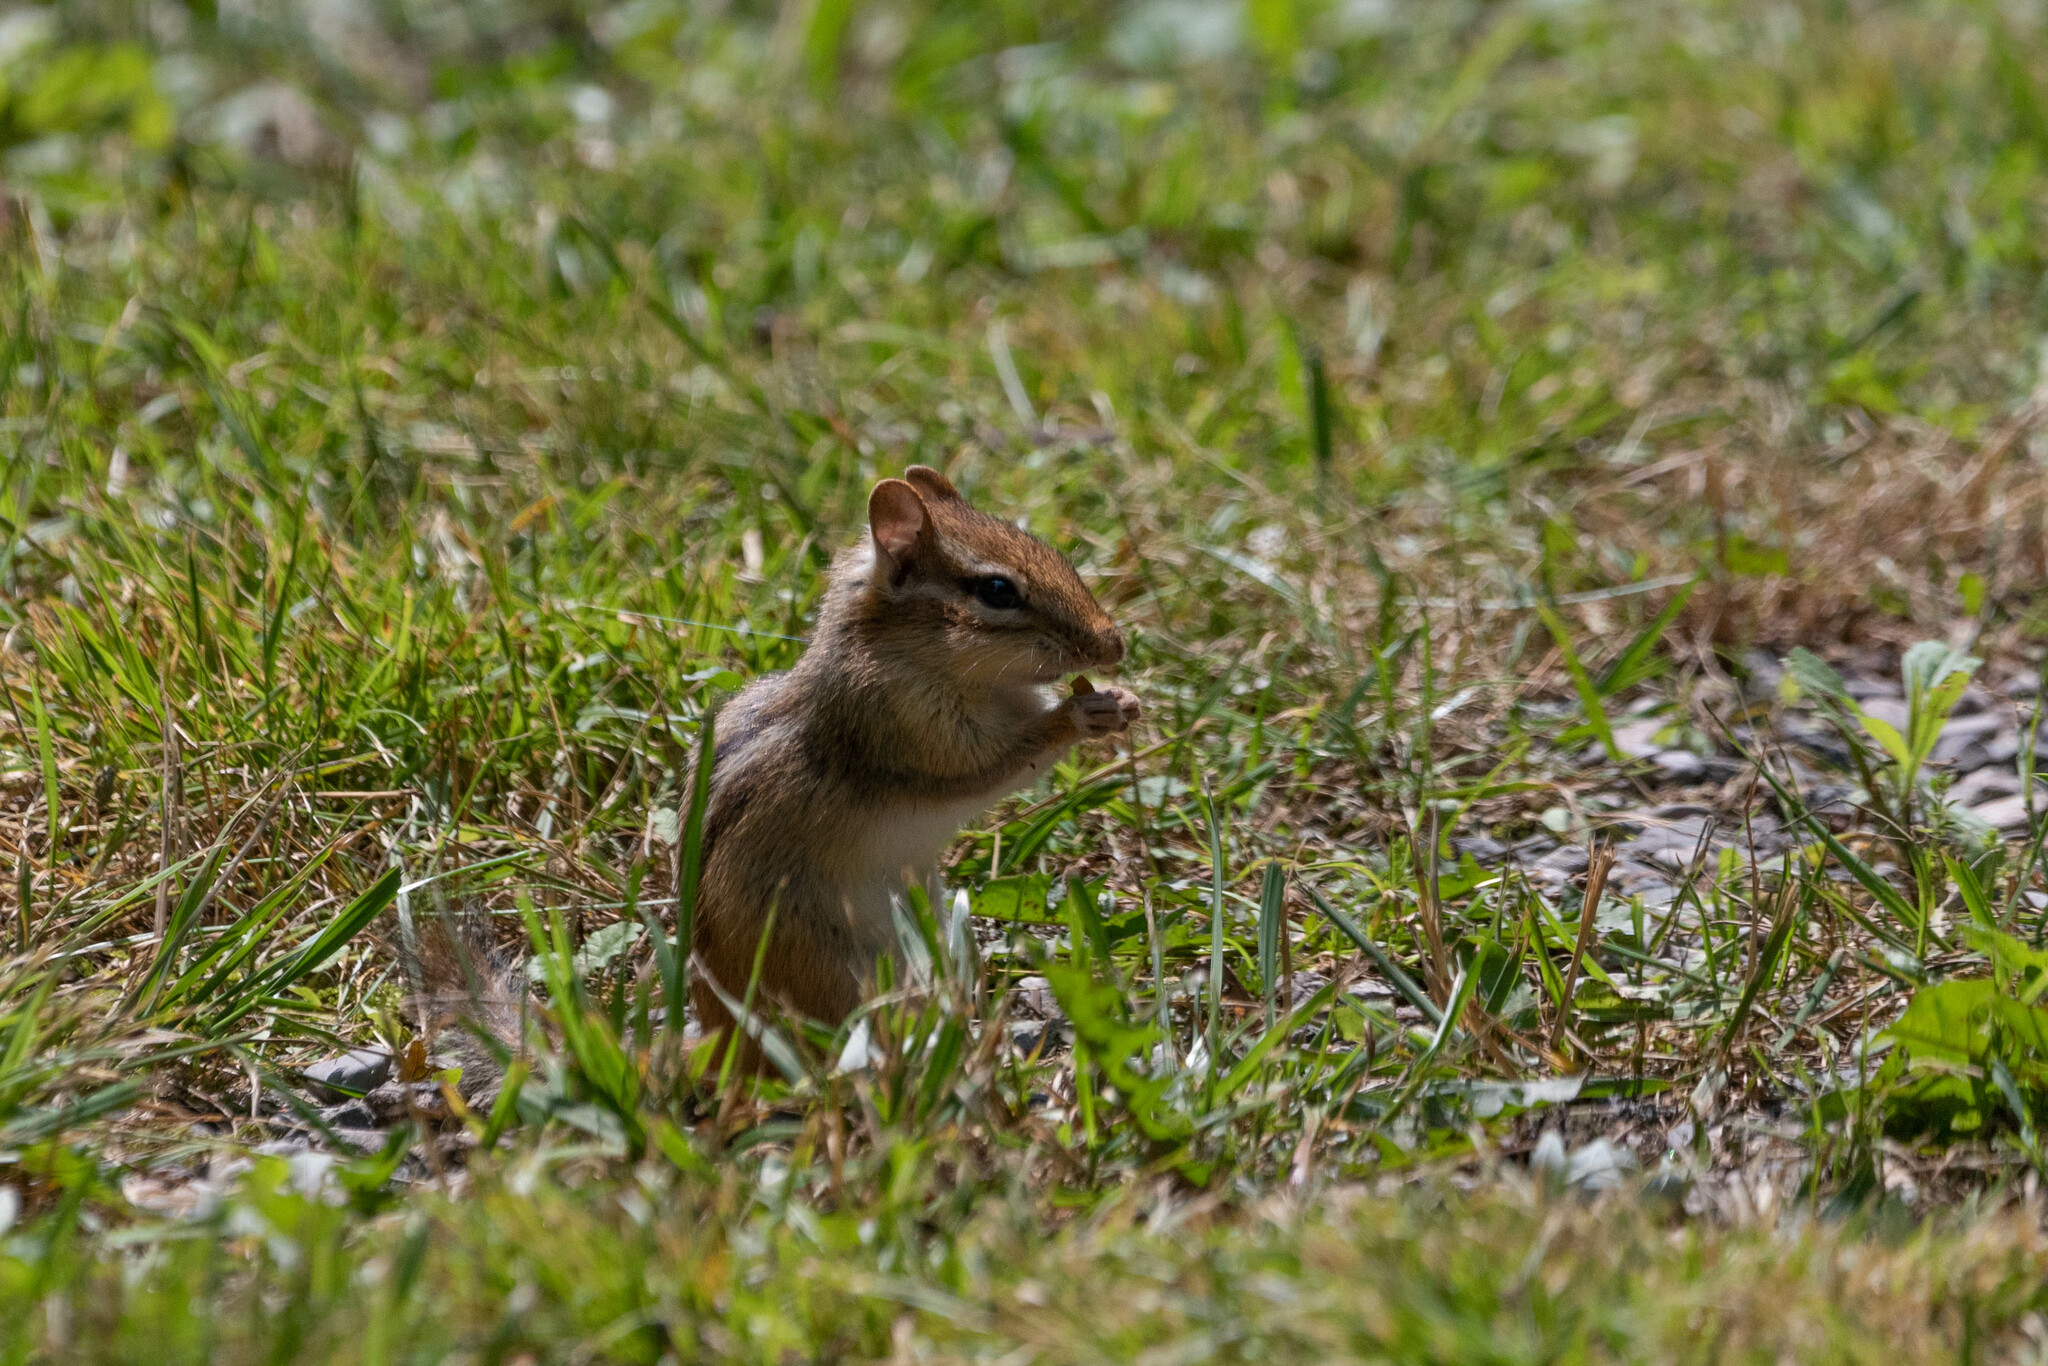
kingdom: Animalia
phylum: Chordata
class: Mammalia
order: Rodentia
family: Sciuridae
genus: Tamias
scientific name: Tamias striatus
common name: Eastern chipmunk
